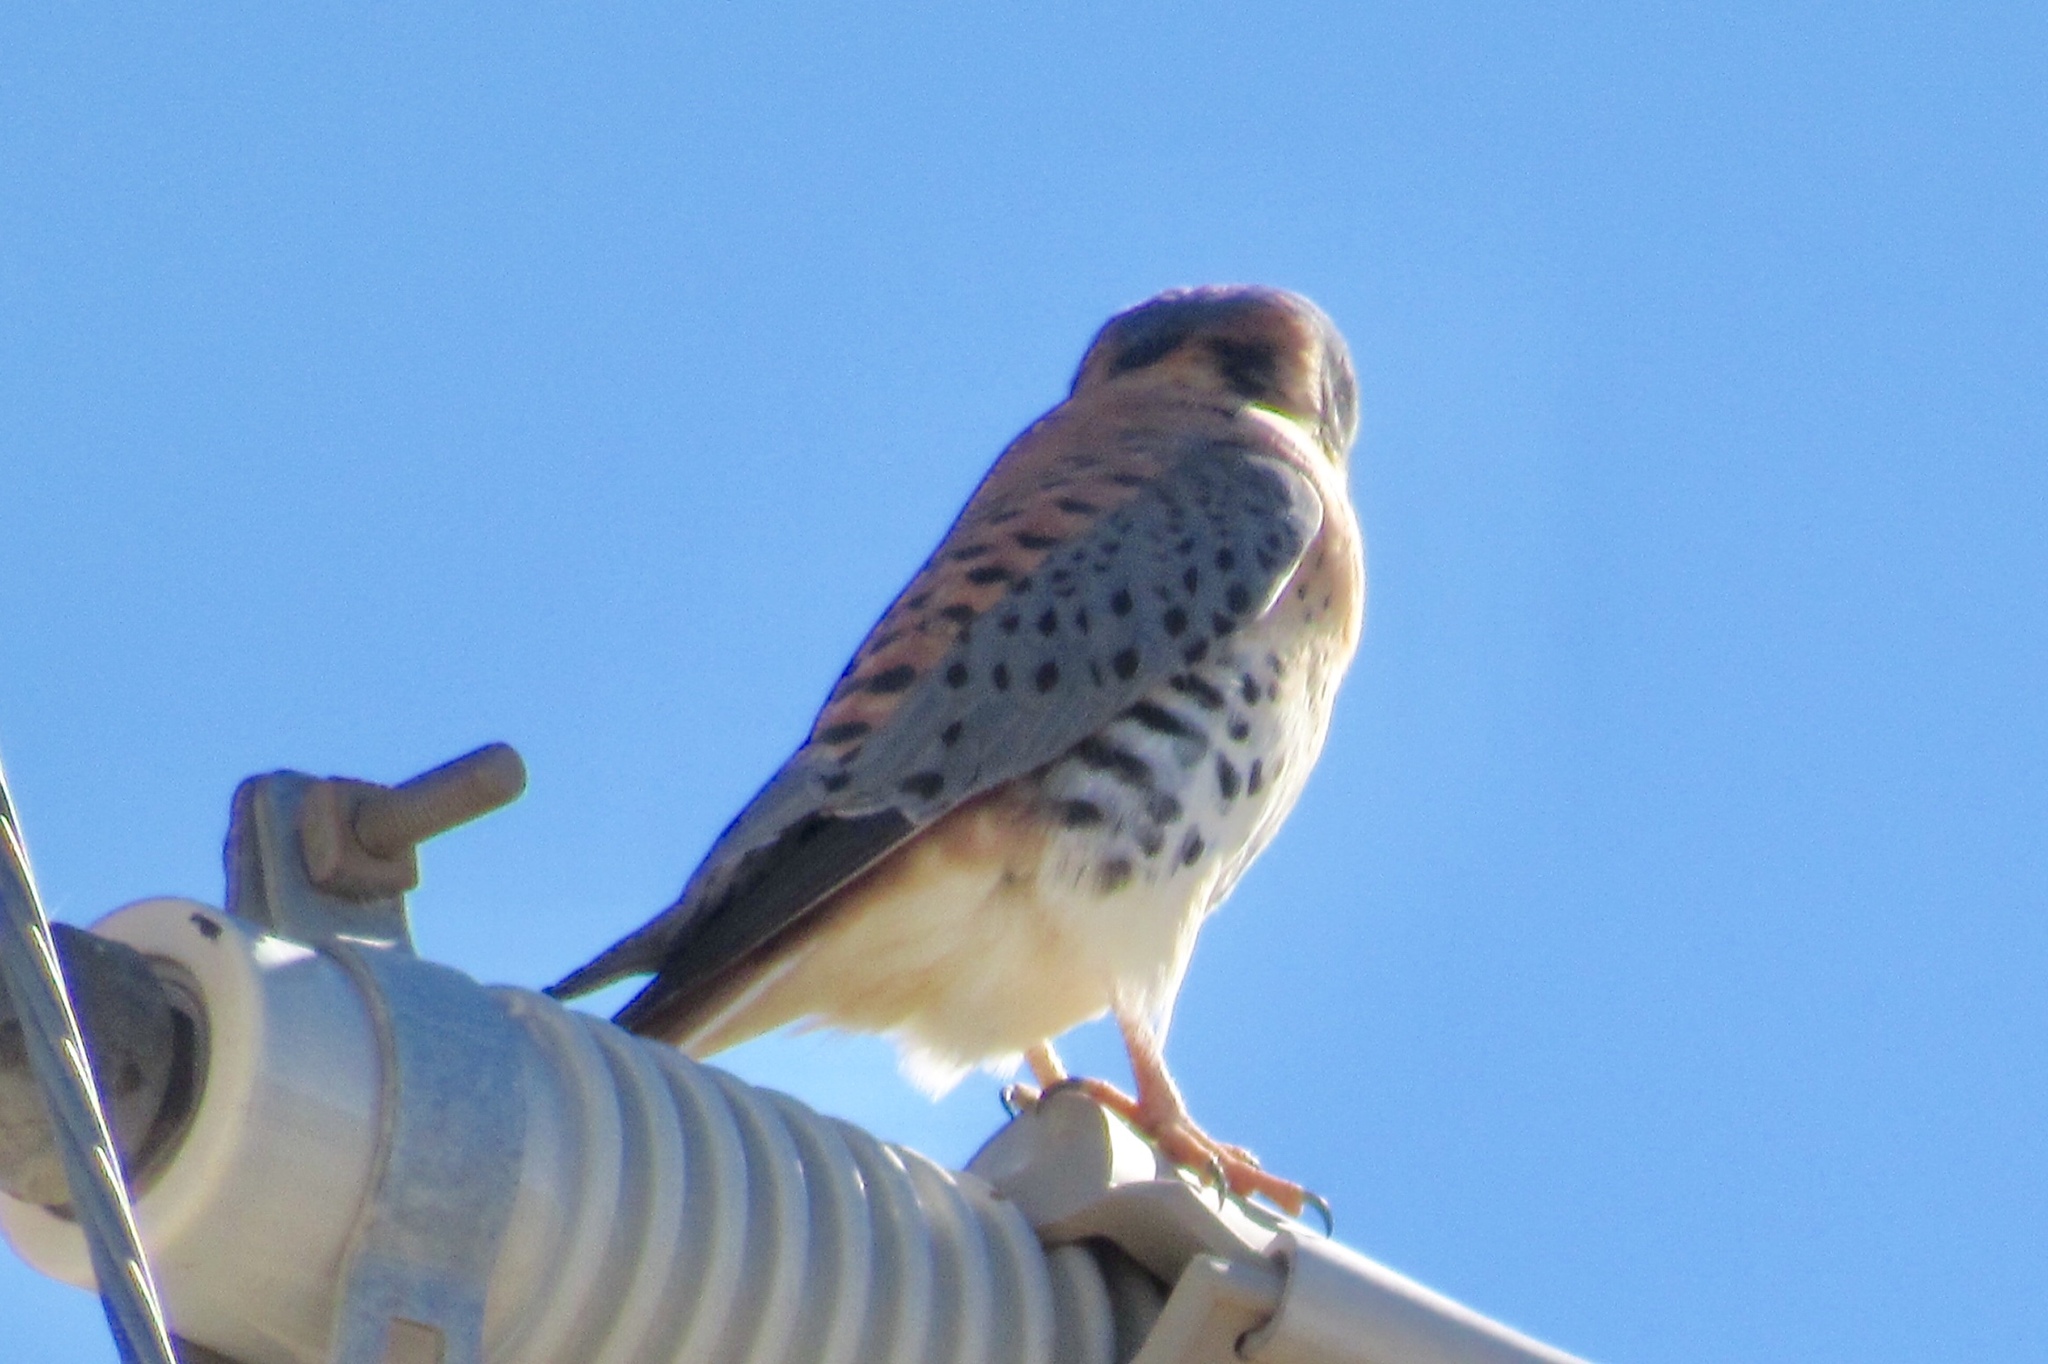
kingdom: Animalia
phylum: Chordata
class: Aves
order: Falconiformes
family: Falconidae
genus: Falco
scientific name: Falco sparverius
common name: American kestrel
